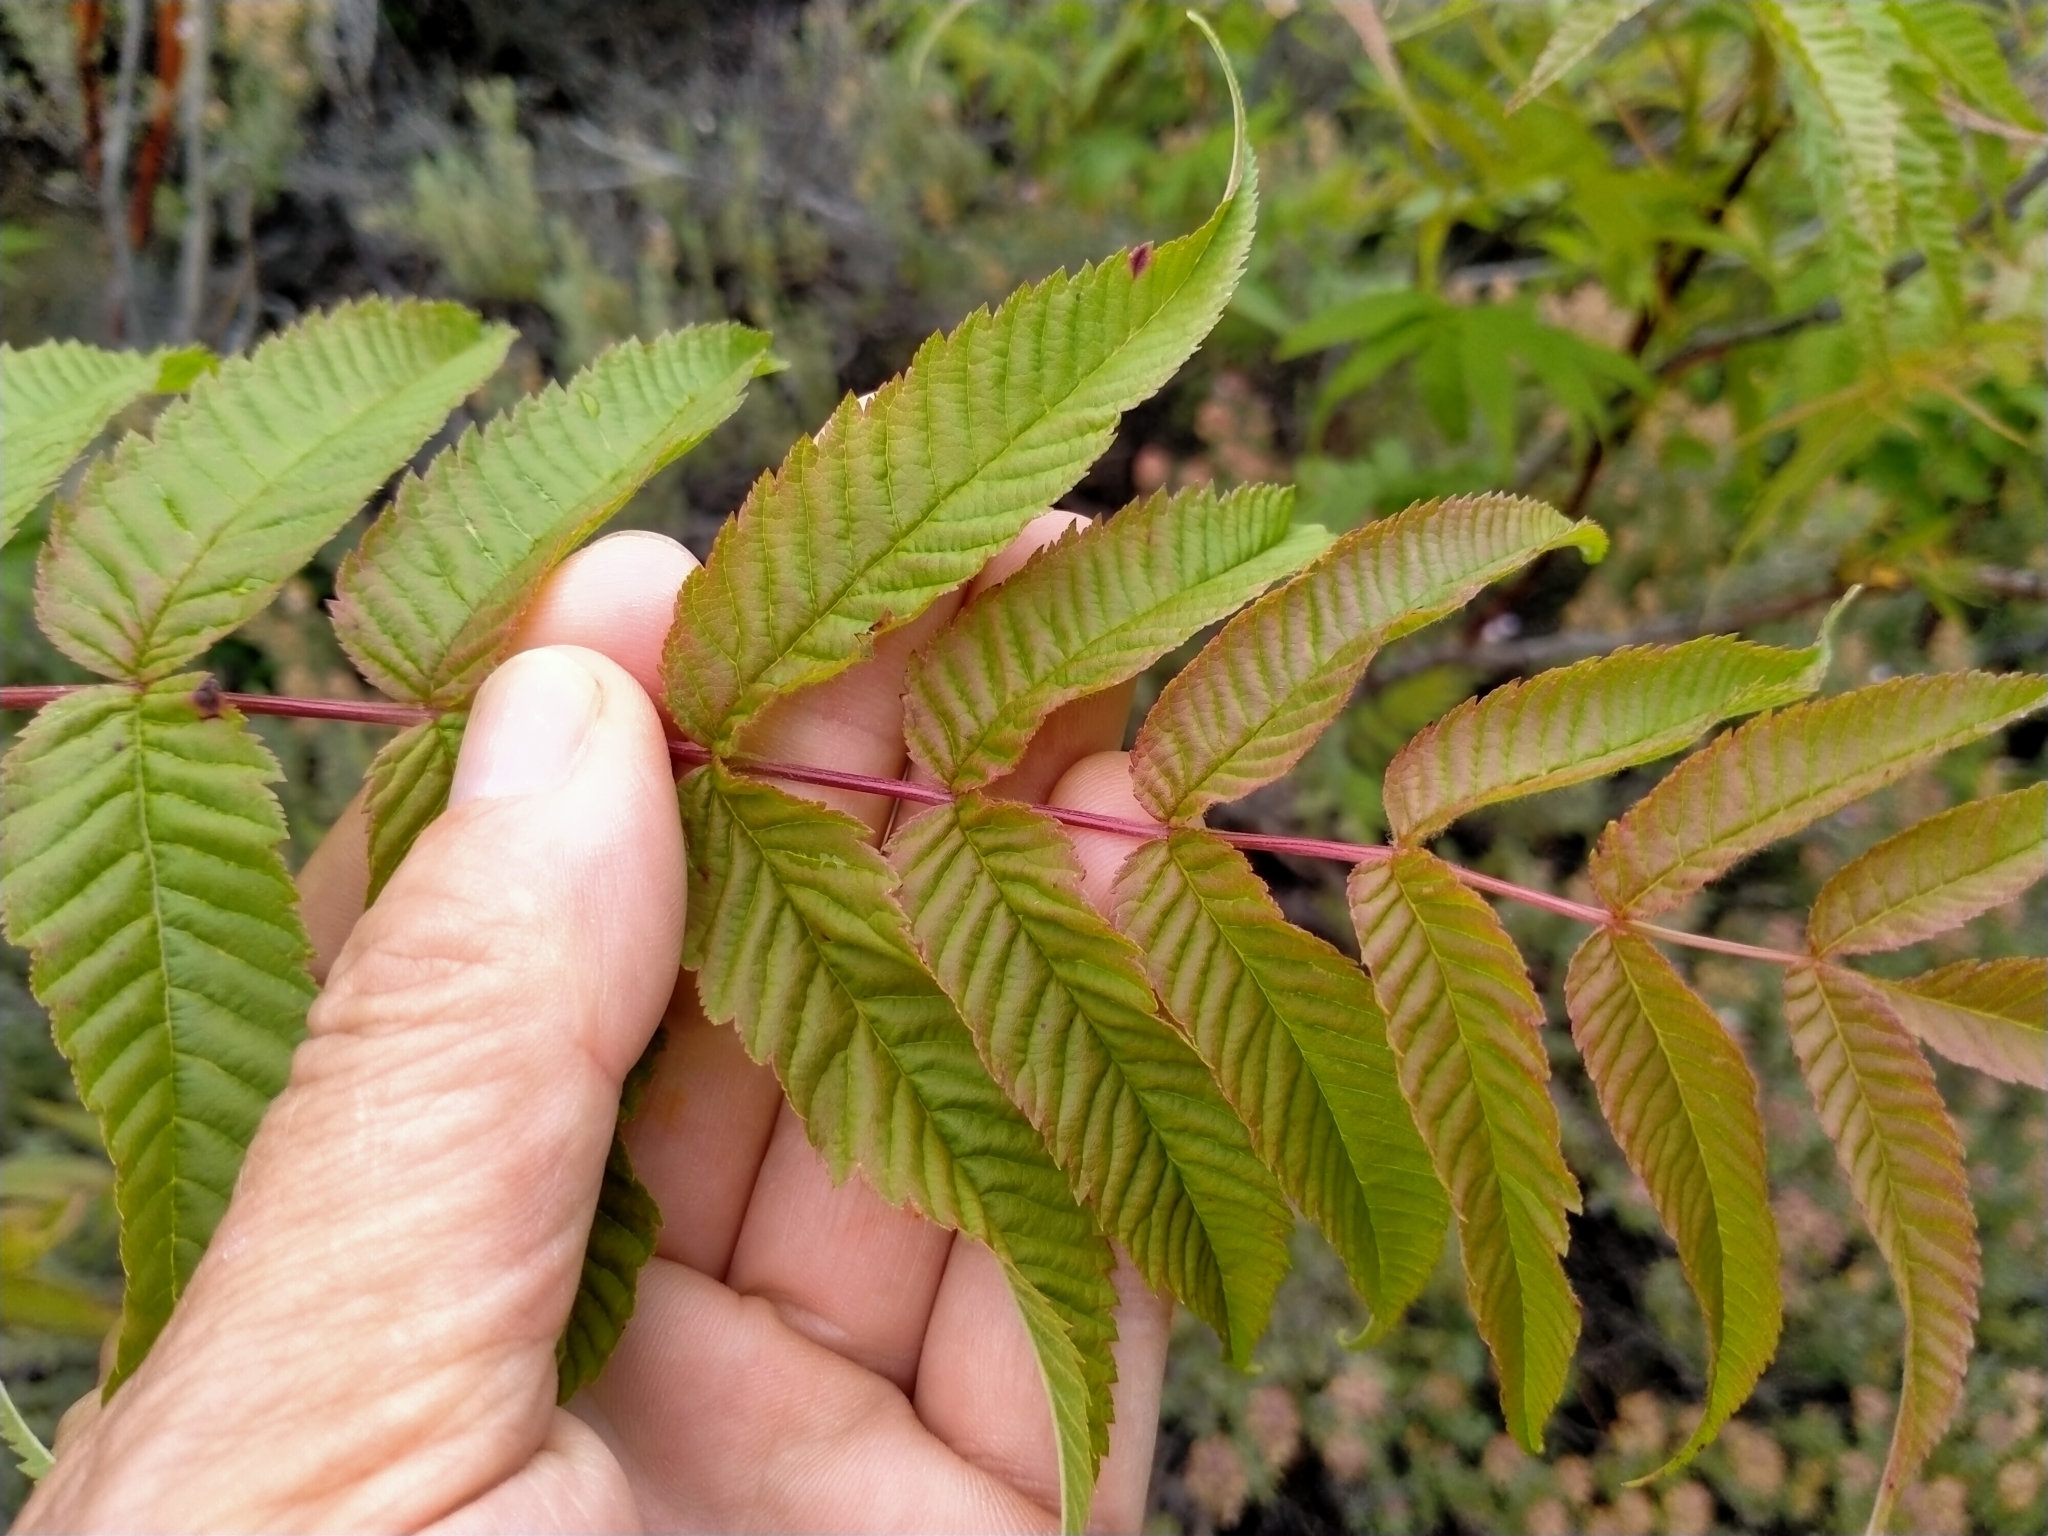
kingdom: Plantae
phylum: Tracheophyta
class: Magnoliopsida
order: Sapindales
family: Anacardiaceae
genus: Rhus
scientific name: Rhus typhina
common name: Staghorn sumac
